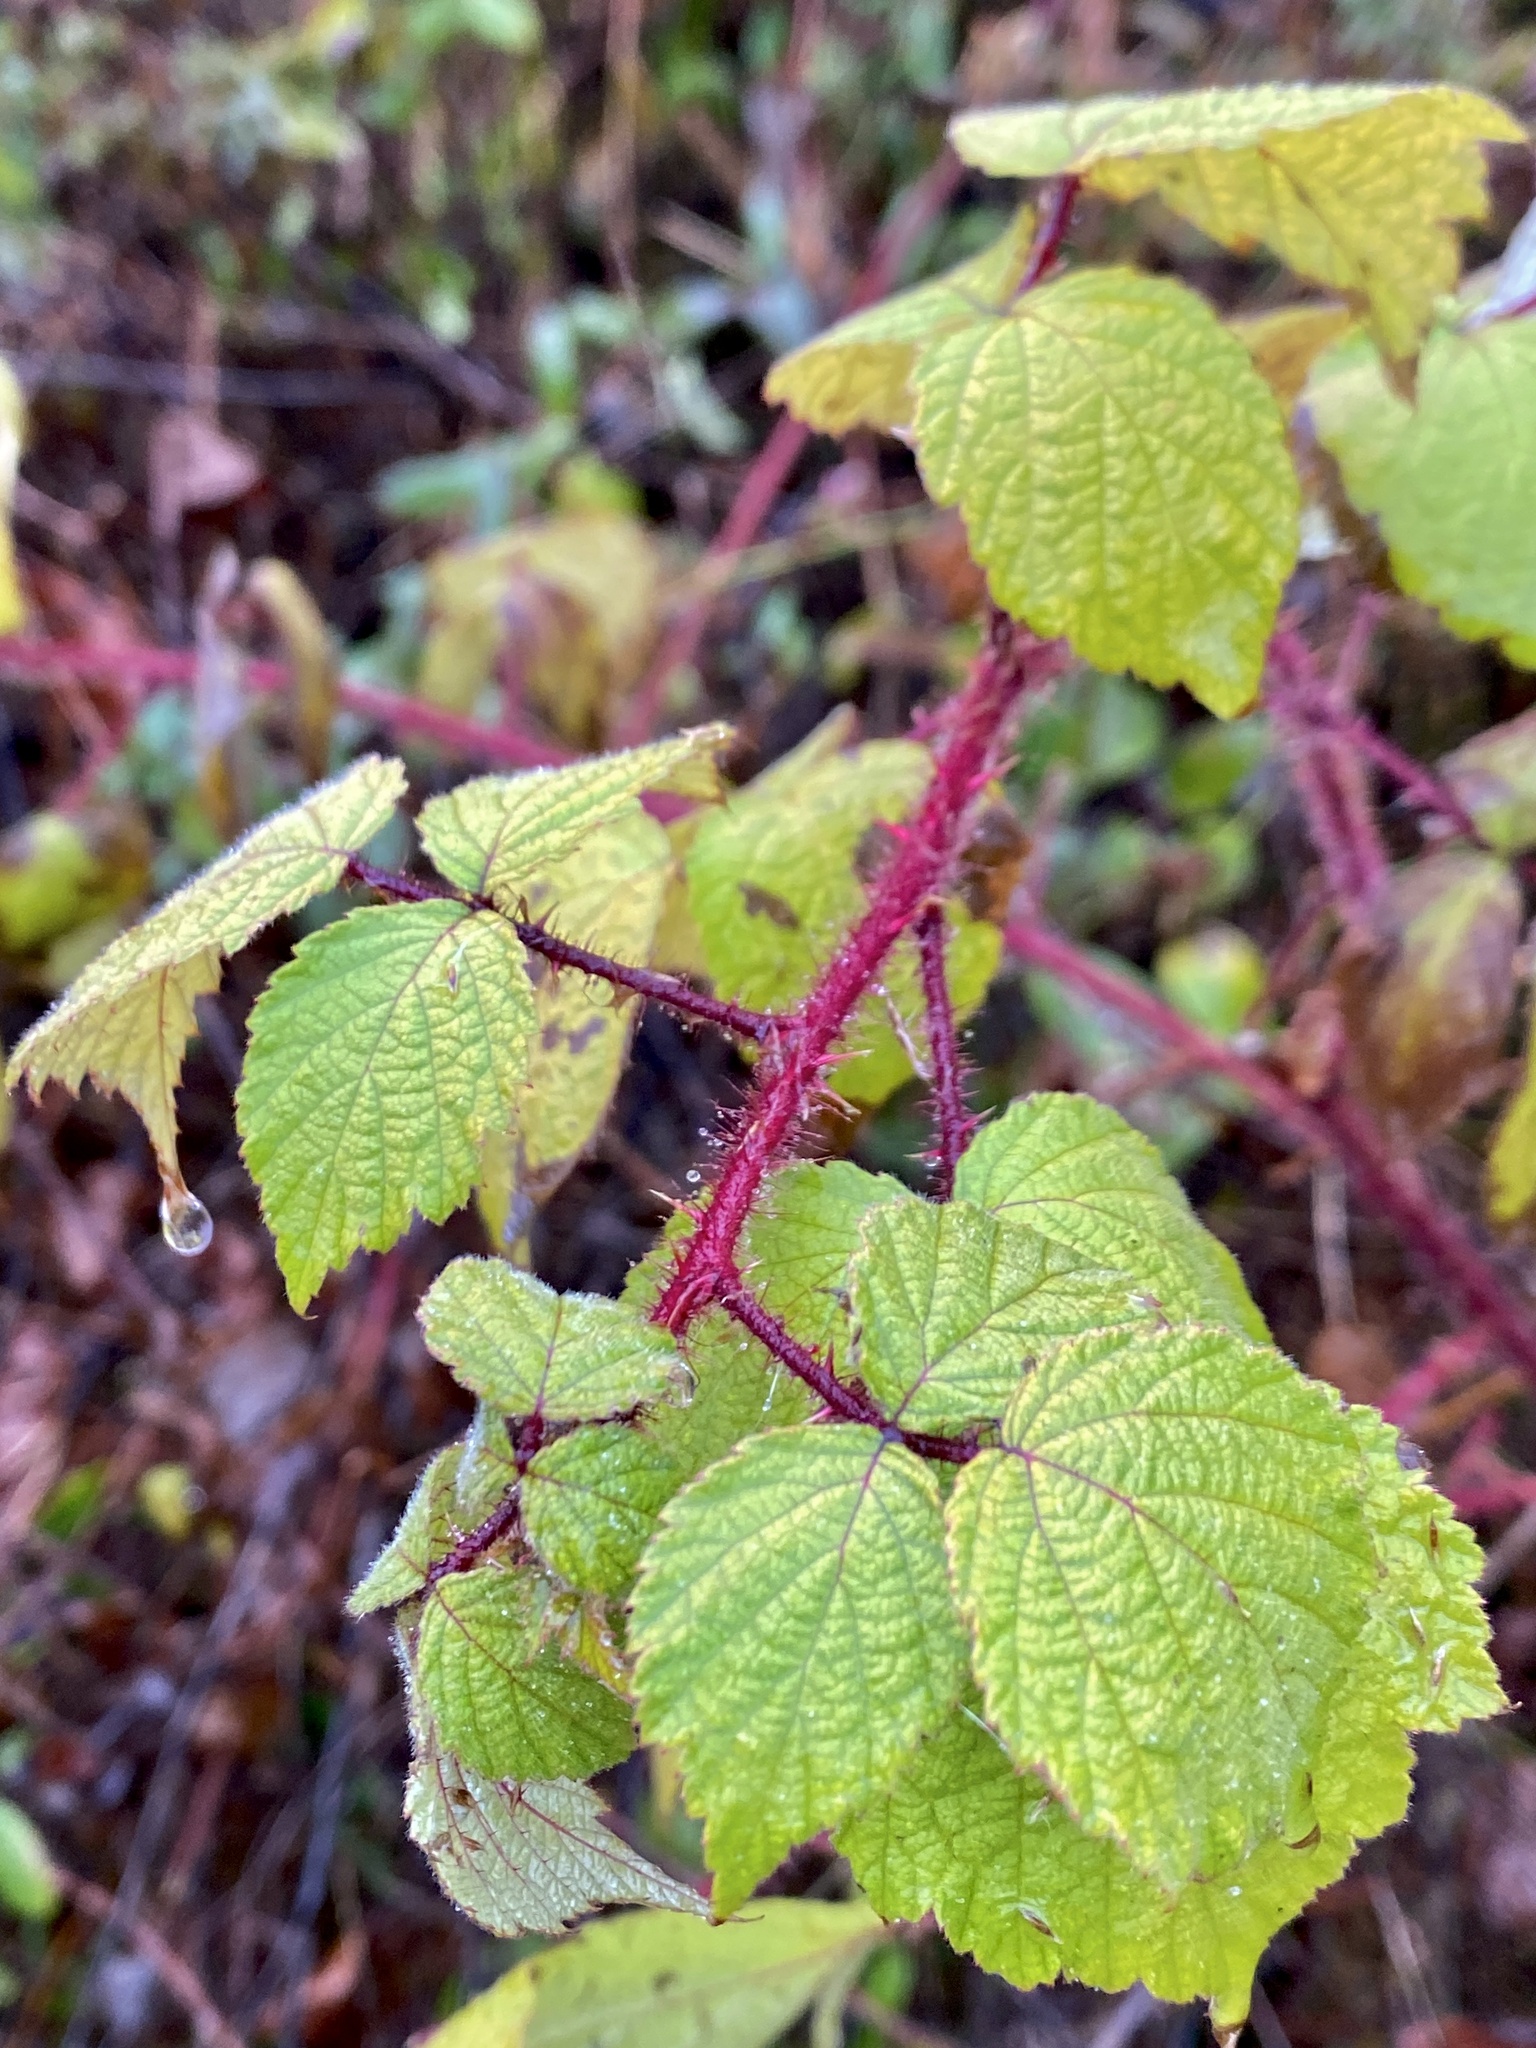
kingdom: Plantae
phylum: Tracheophyta
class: Magnoliopsida
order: Rosales
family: Rosaceae
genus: Rubus
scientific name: Rubus phoenicolasius
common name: Japanese wineberry
